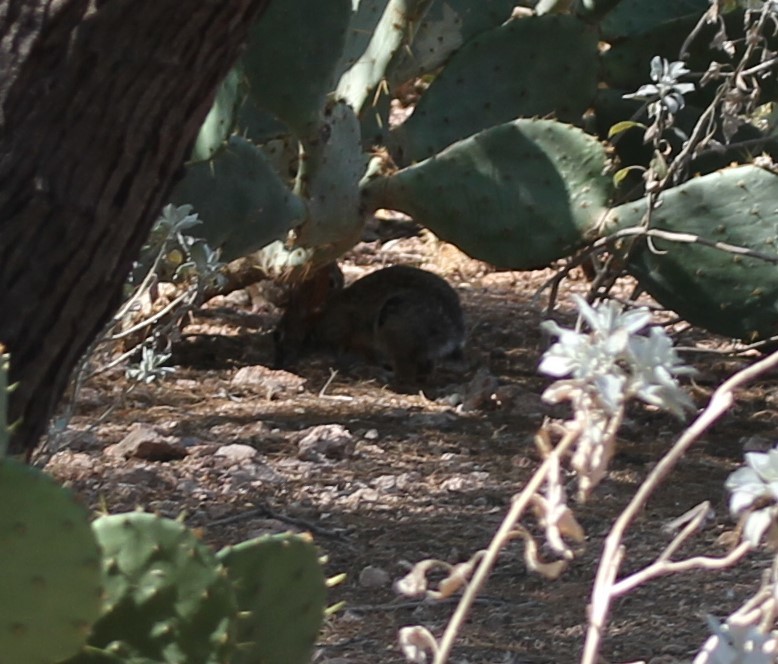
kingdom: Animalia
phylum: Chordata
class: Mammalia
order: Lagomorpha
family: Leporidae
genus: Sylvilagus
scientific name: Sylvilagus audubonii
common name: Desert cottontail
